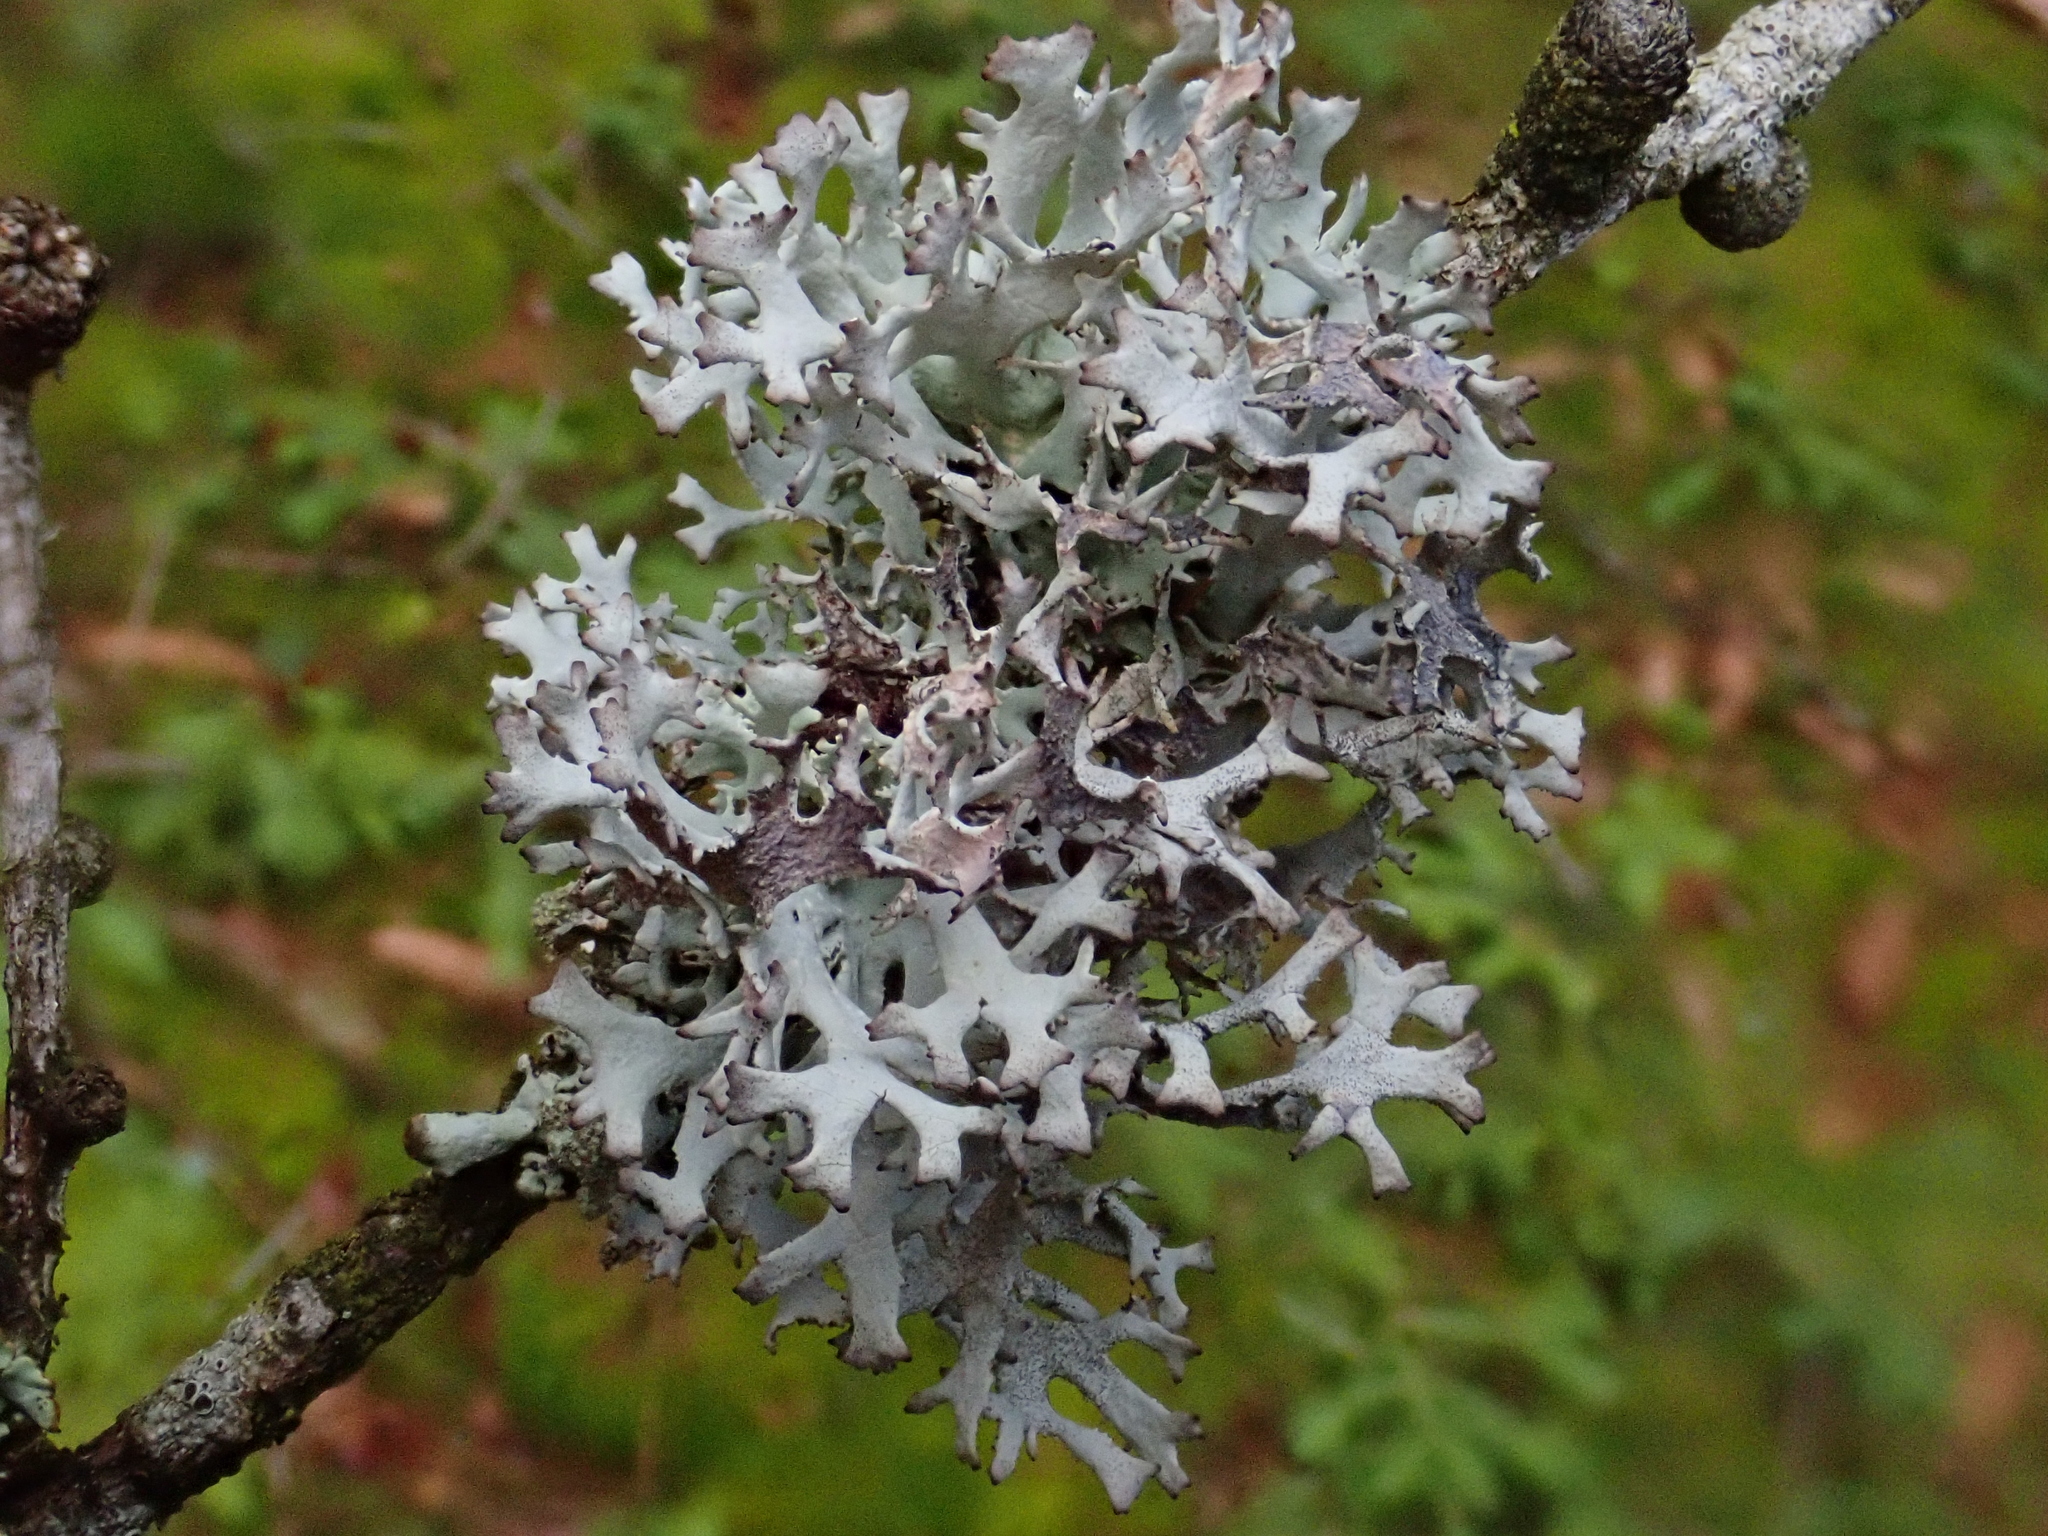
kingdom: Fungi
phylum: Ascomycota
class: Lecanoromycetes
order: Lecanorales
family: Parmeliaceae
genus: Pseudevernia
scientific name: Pseudevernia furfuracea
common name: Tree moss
